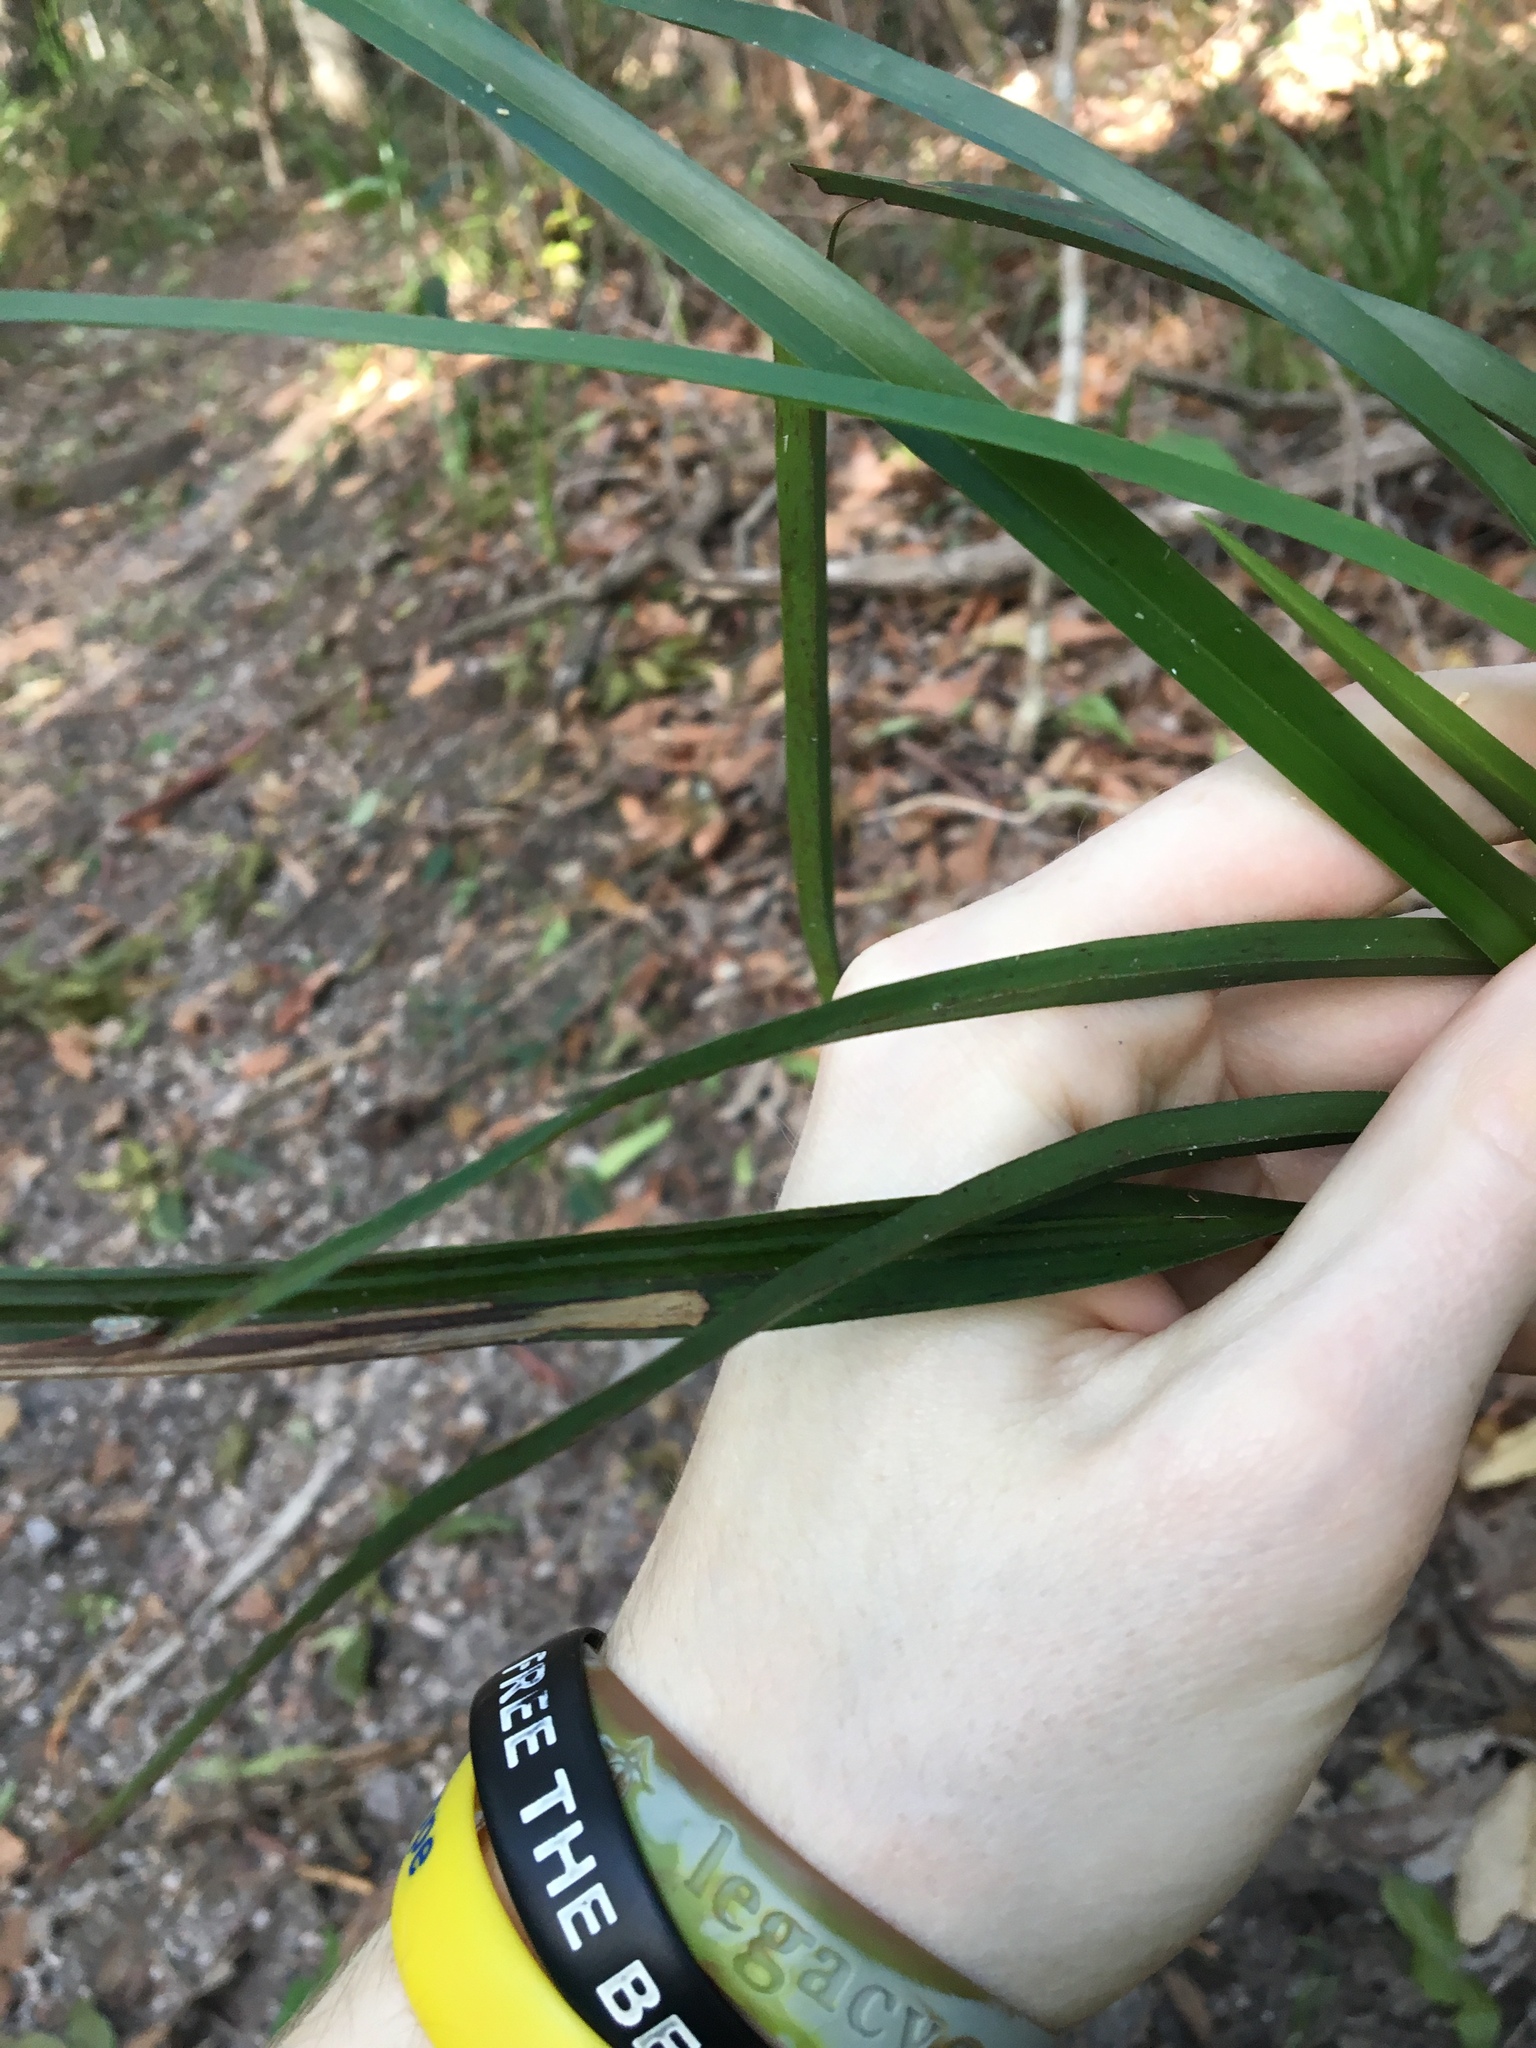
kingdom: Plantae
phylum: Tracheophyta
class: Liliopsida
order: Asparagales
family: Asphodelaceae
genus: Dianella
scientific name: Dianella caerulea
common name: Blue flax-lily
